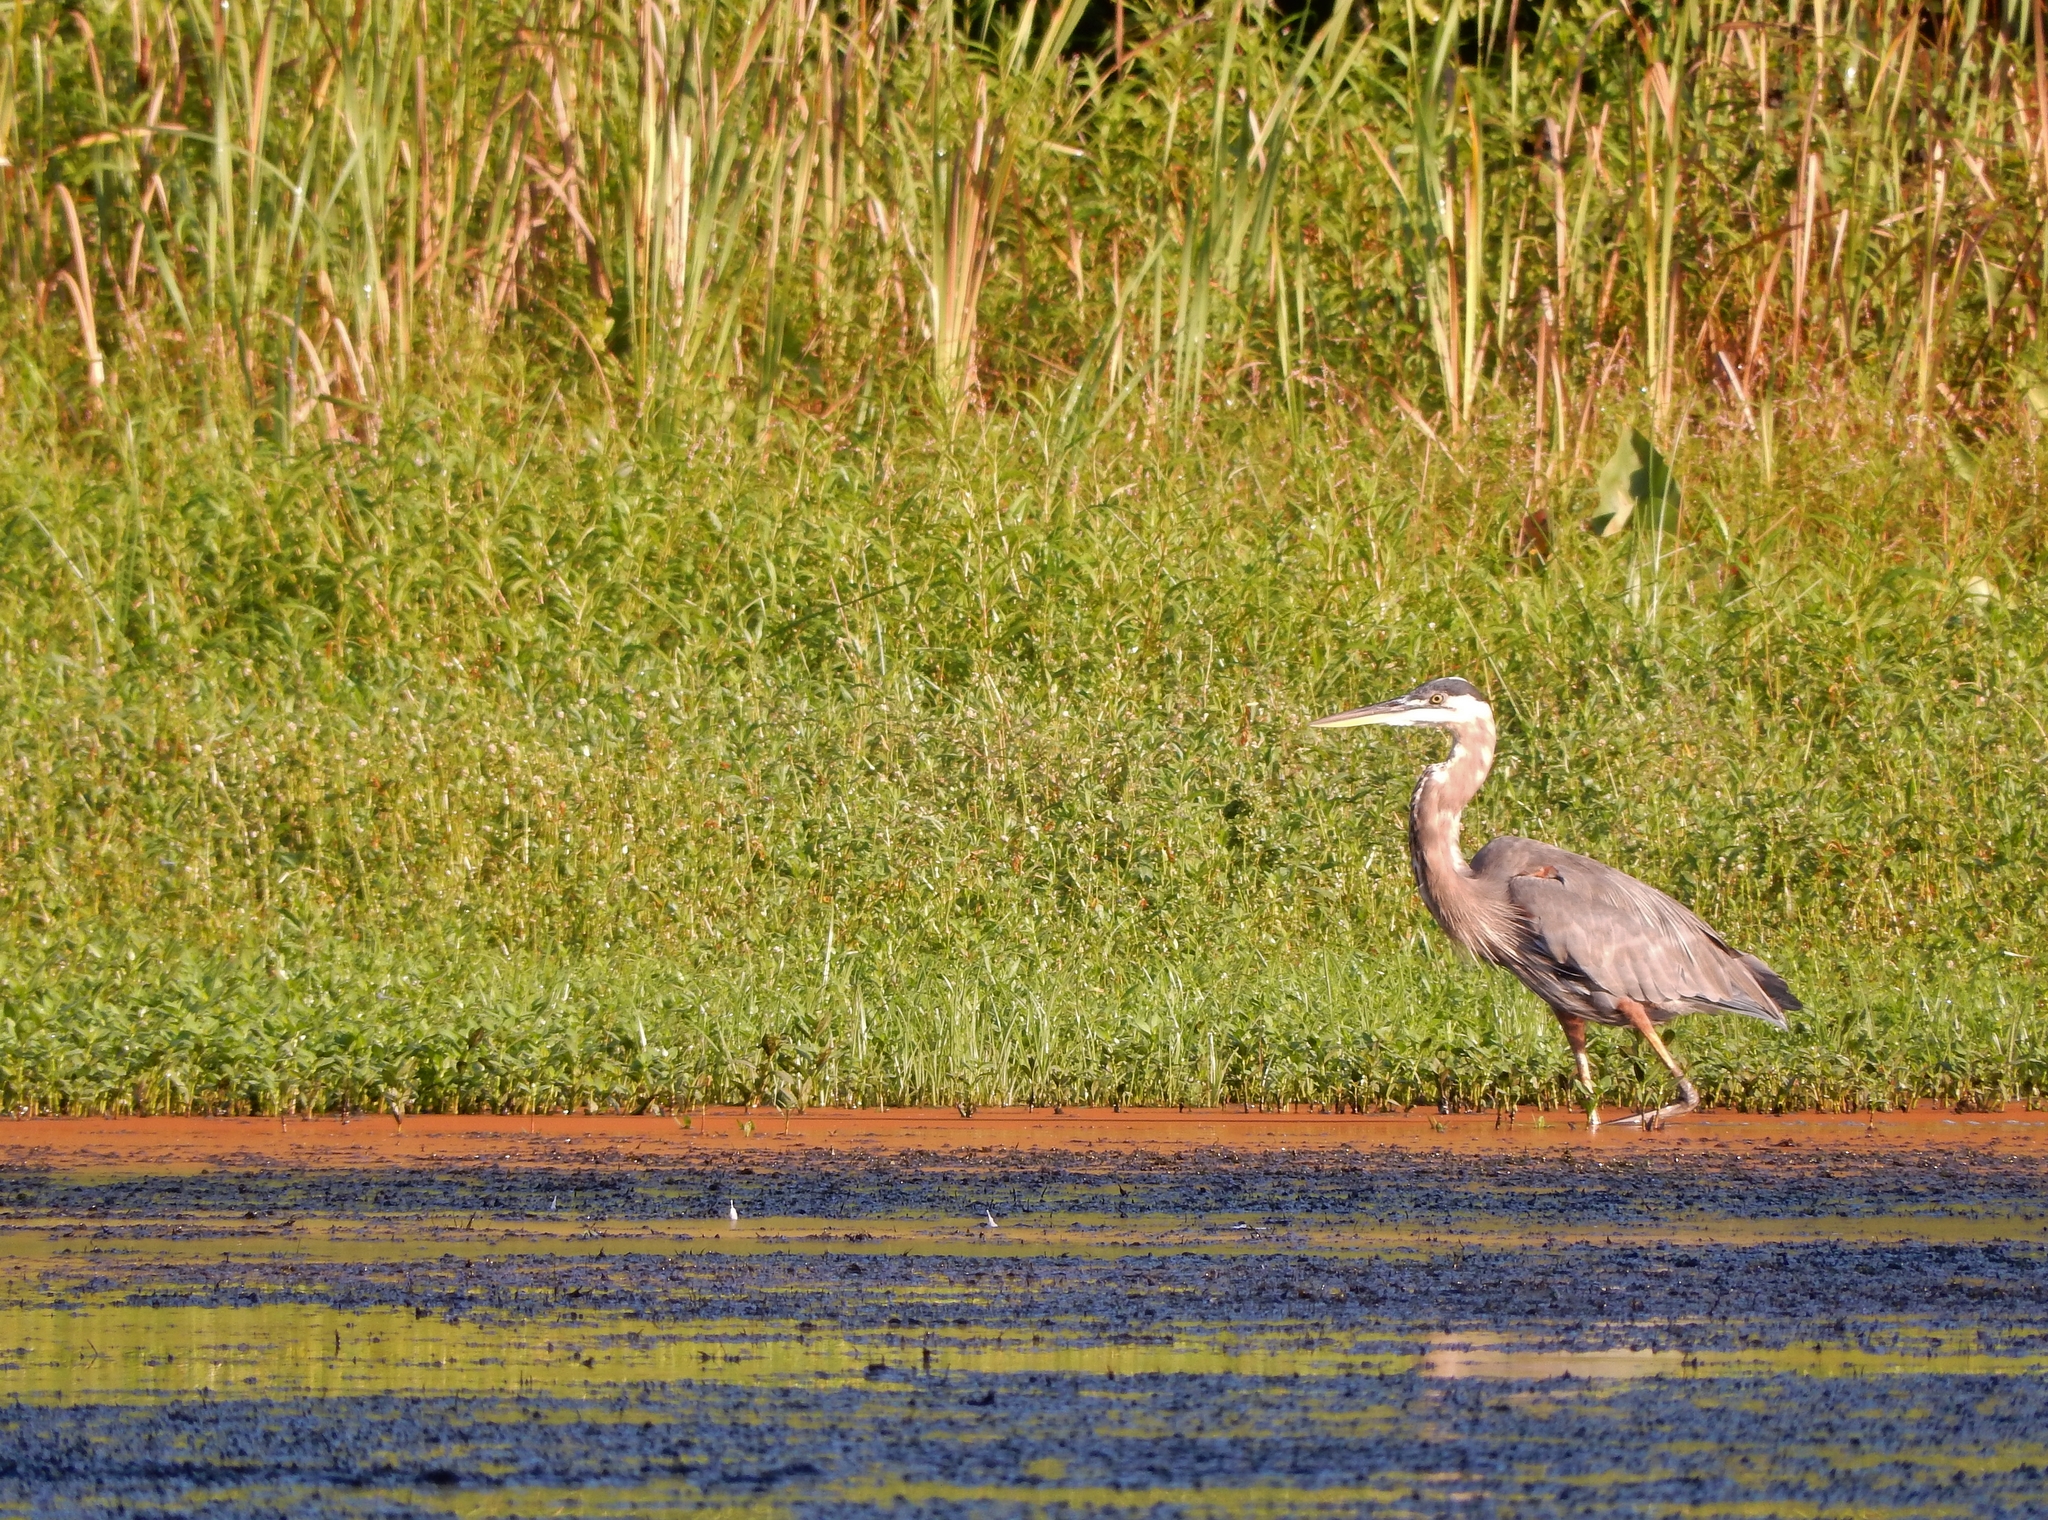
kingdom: Animalia
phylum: Chordata
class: Aves
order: Pelecaniformes
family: Ardeidae
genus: Ardea
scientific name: Ardea herodias
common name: Great blue heron
